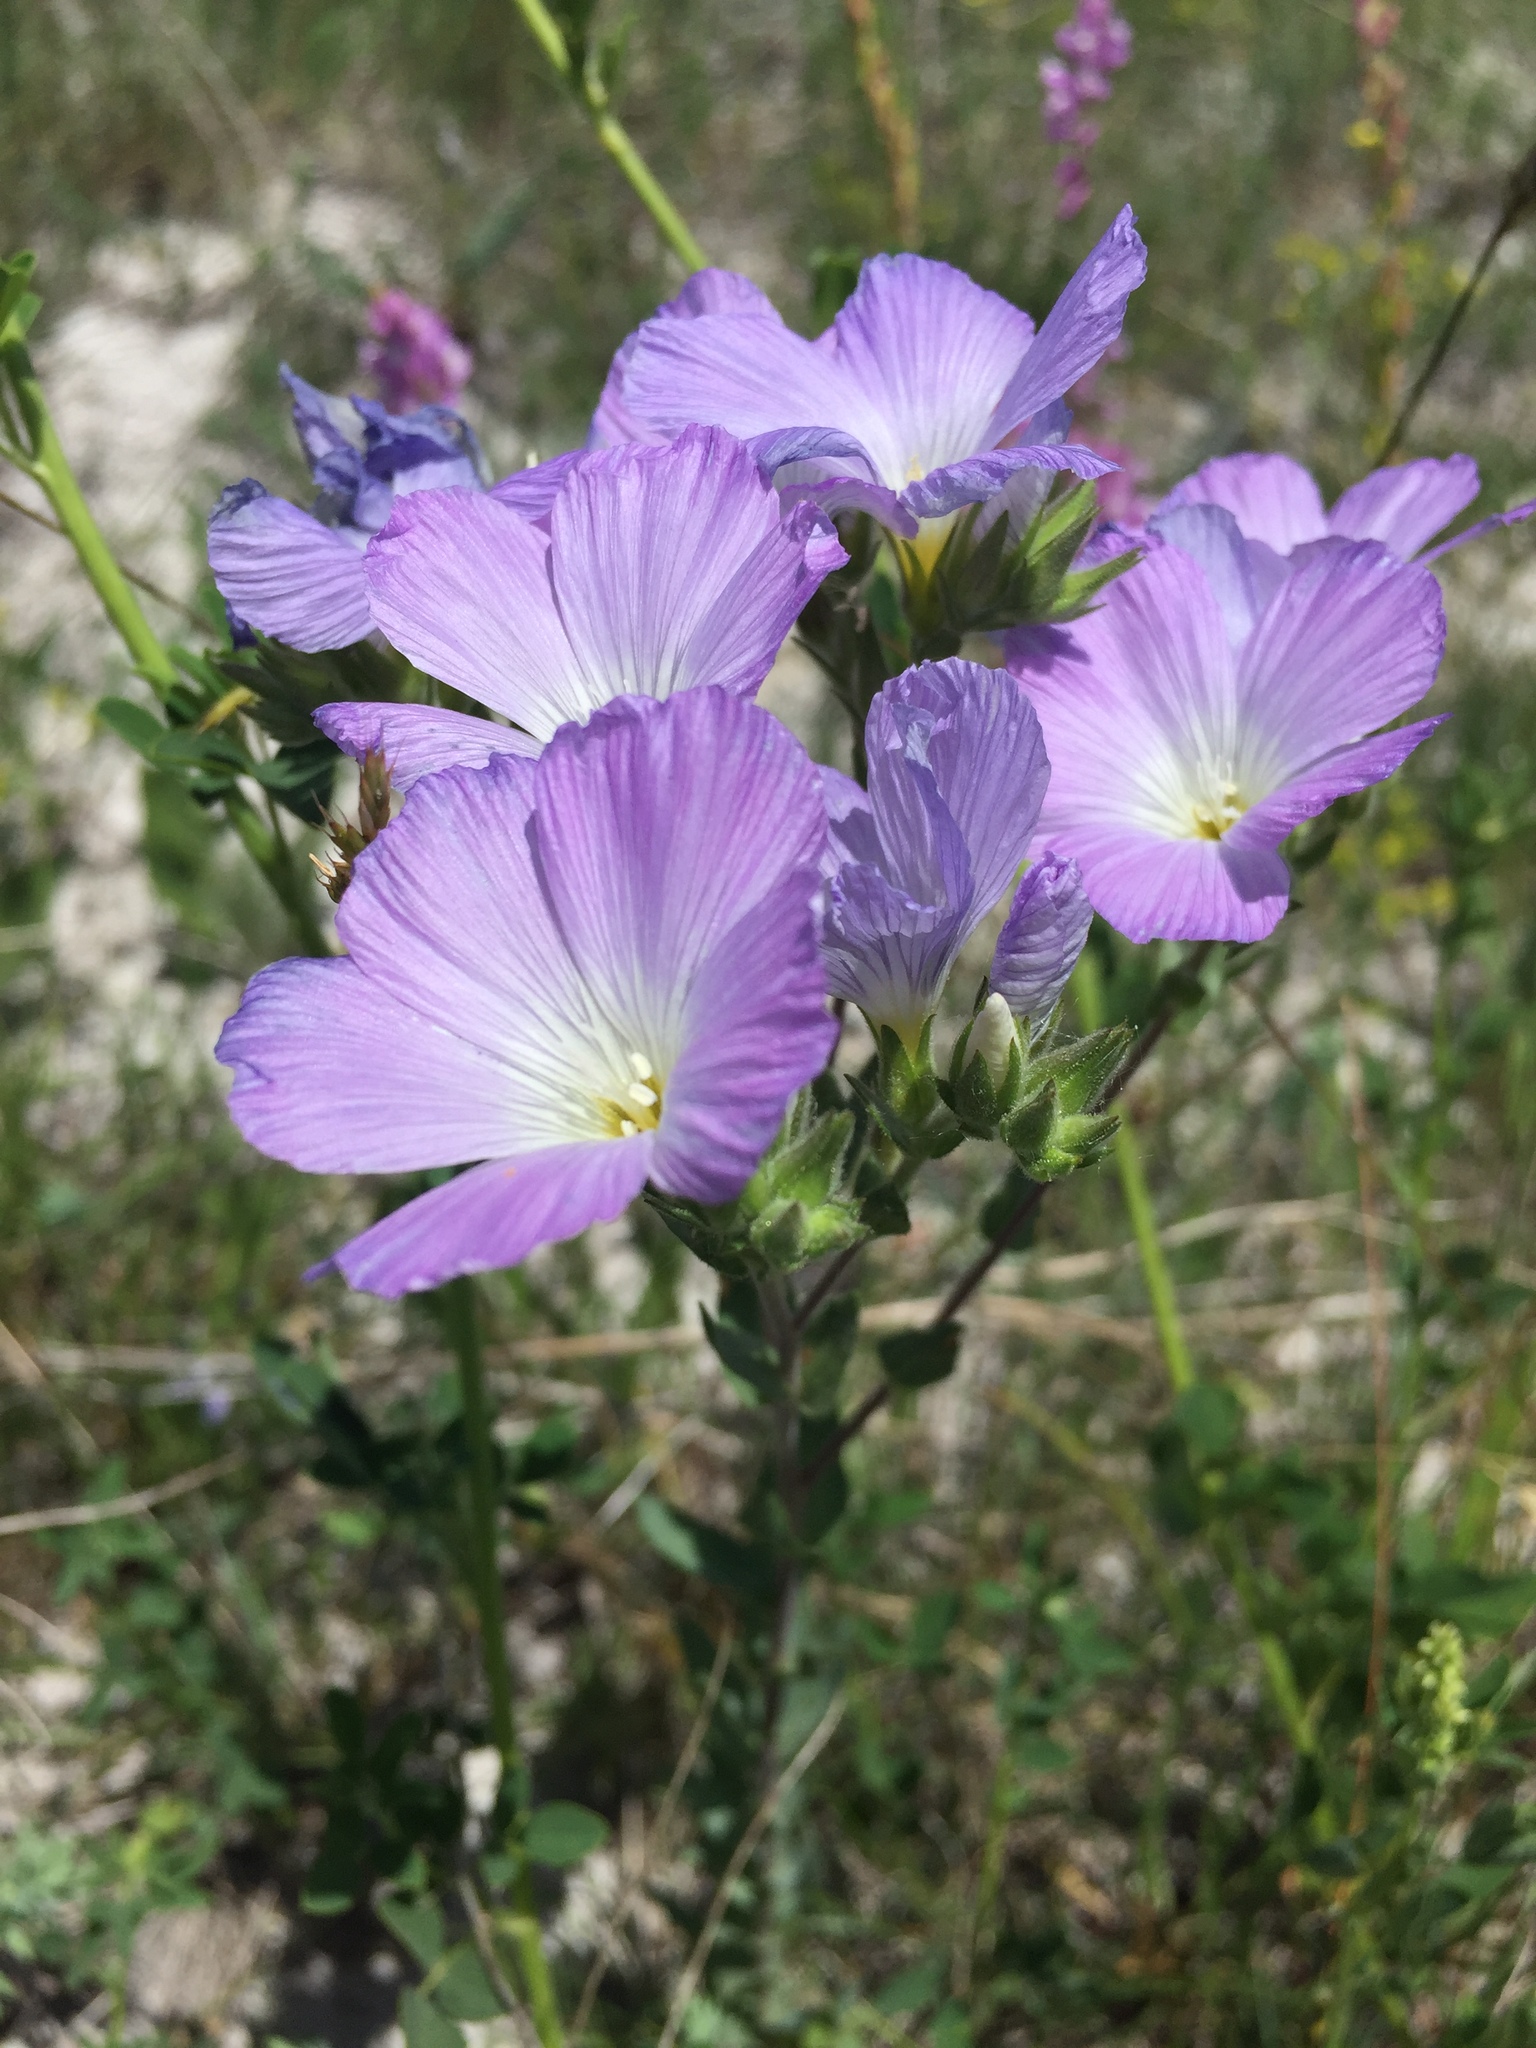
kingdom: Plantae
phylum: Tracheophyta
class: Magnoliopsida
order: Malpighiales
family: Linaceae
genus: Linum
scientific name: Linum hirsutum
